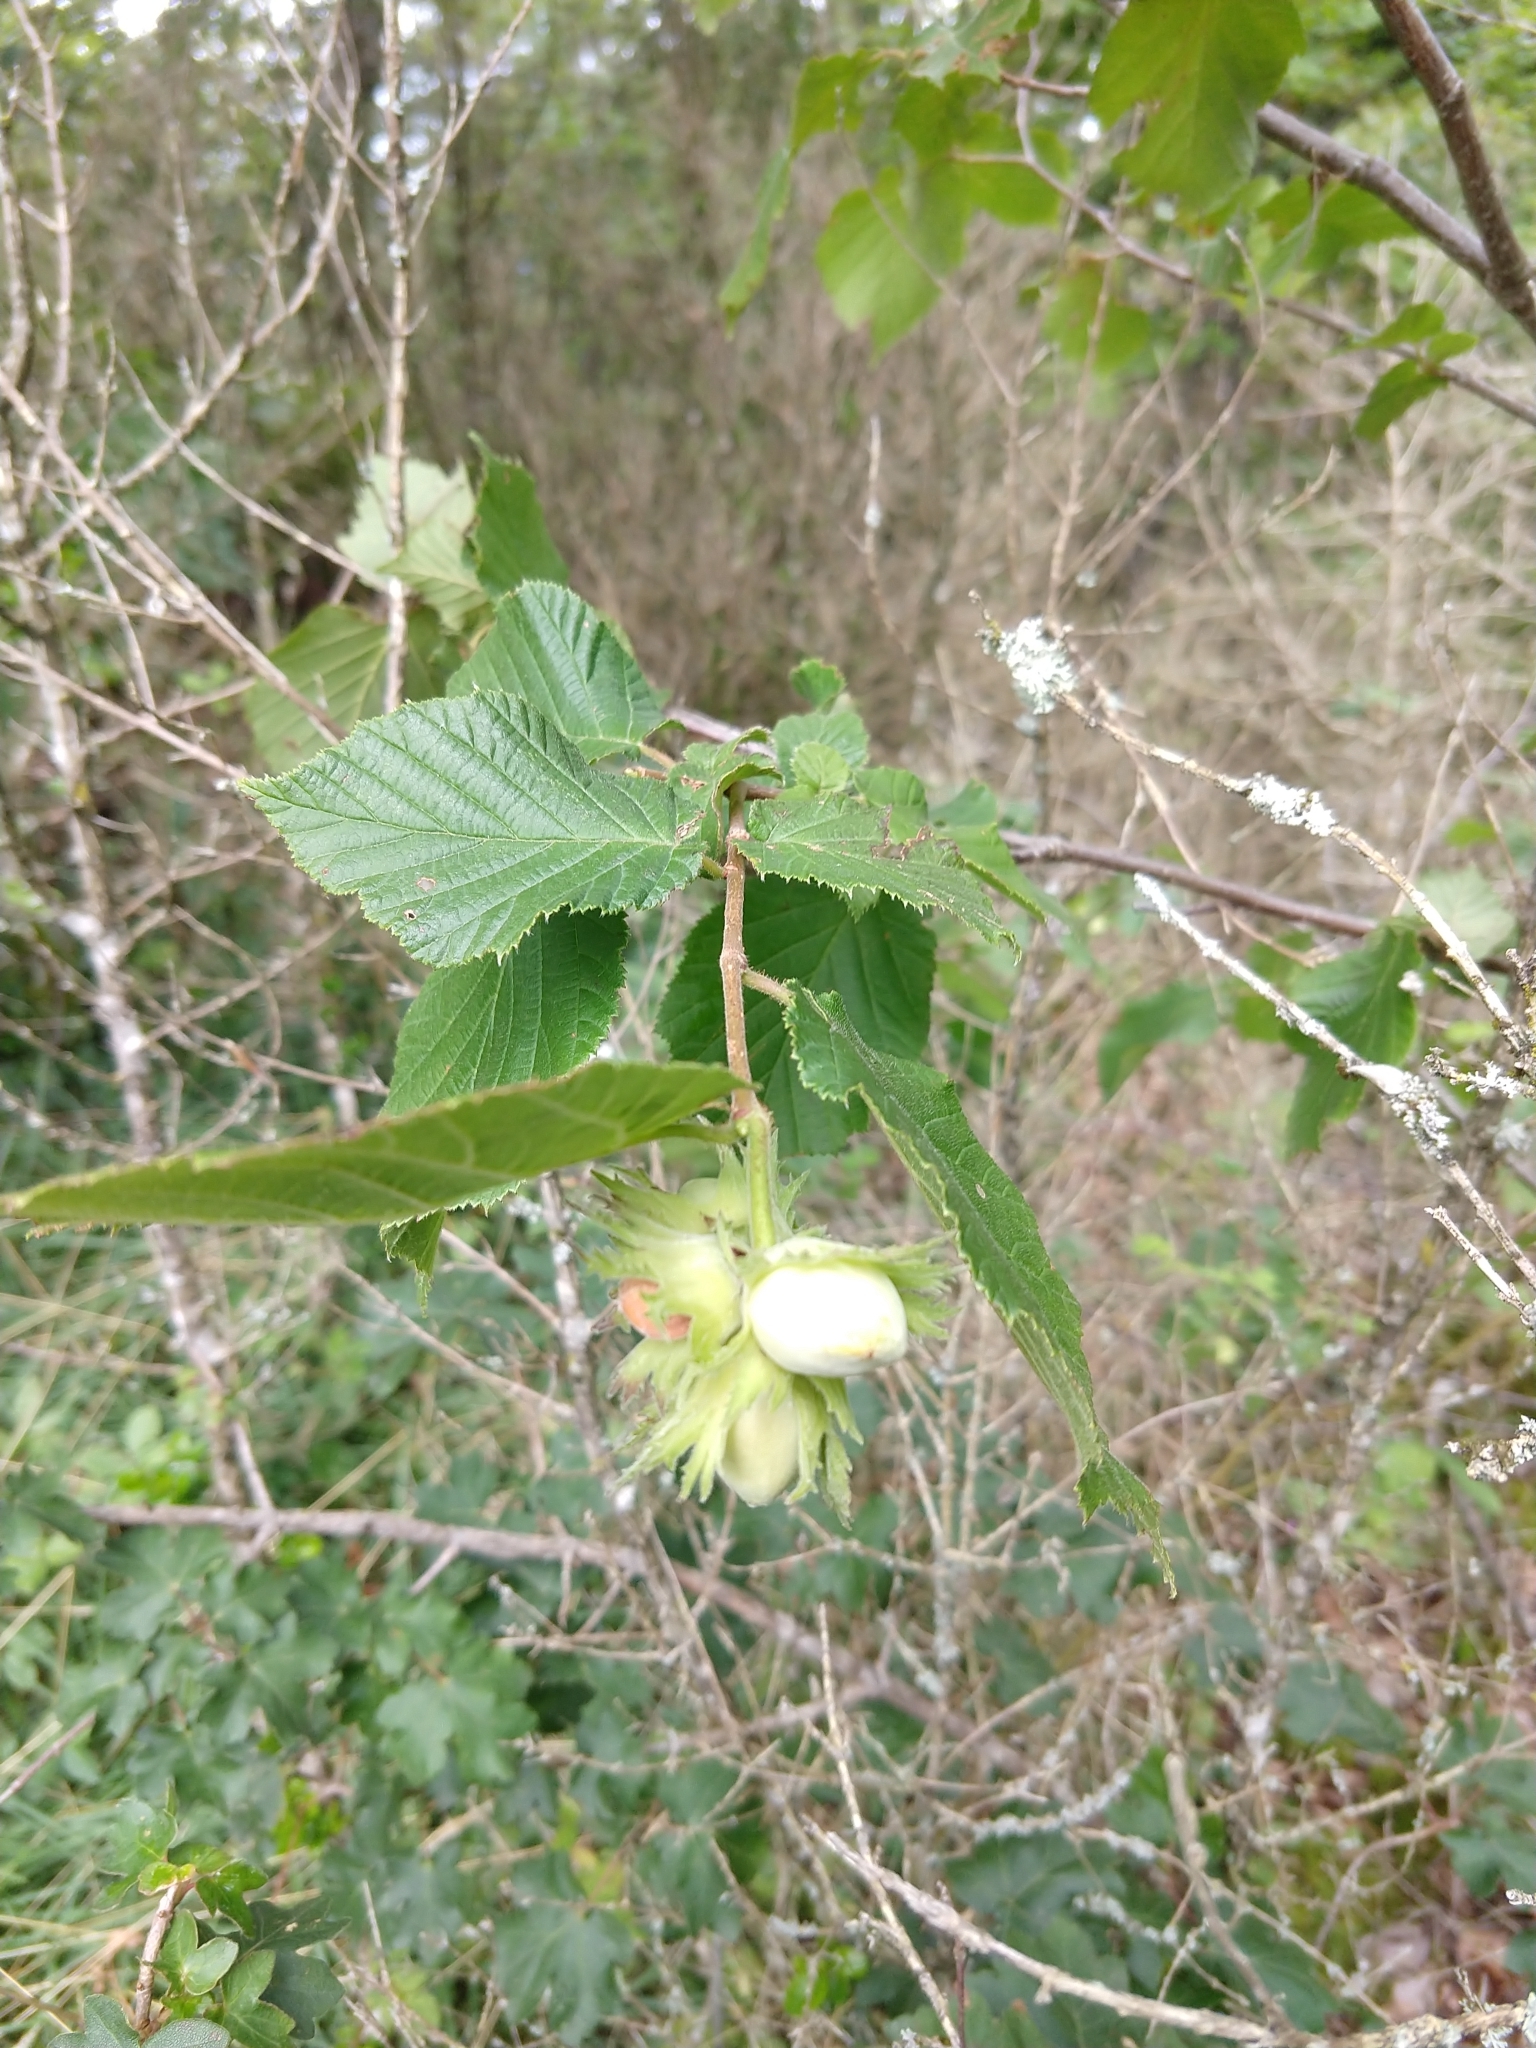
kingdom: Plantae
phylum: Tracheophyta
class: Magnoliopsida
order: Fagales
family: Betulaceae
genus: Corylus
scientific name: Corylus avellana
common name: European hazel
